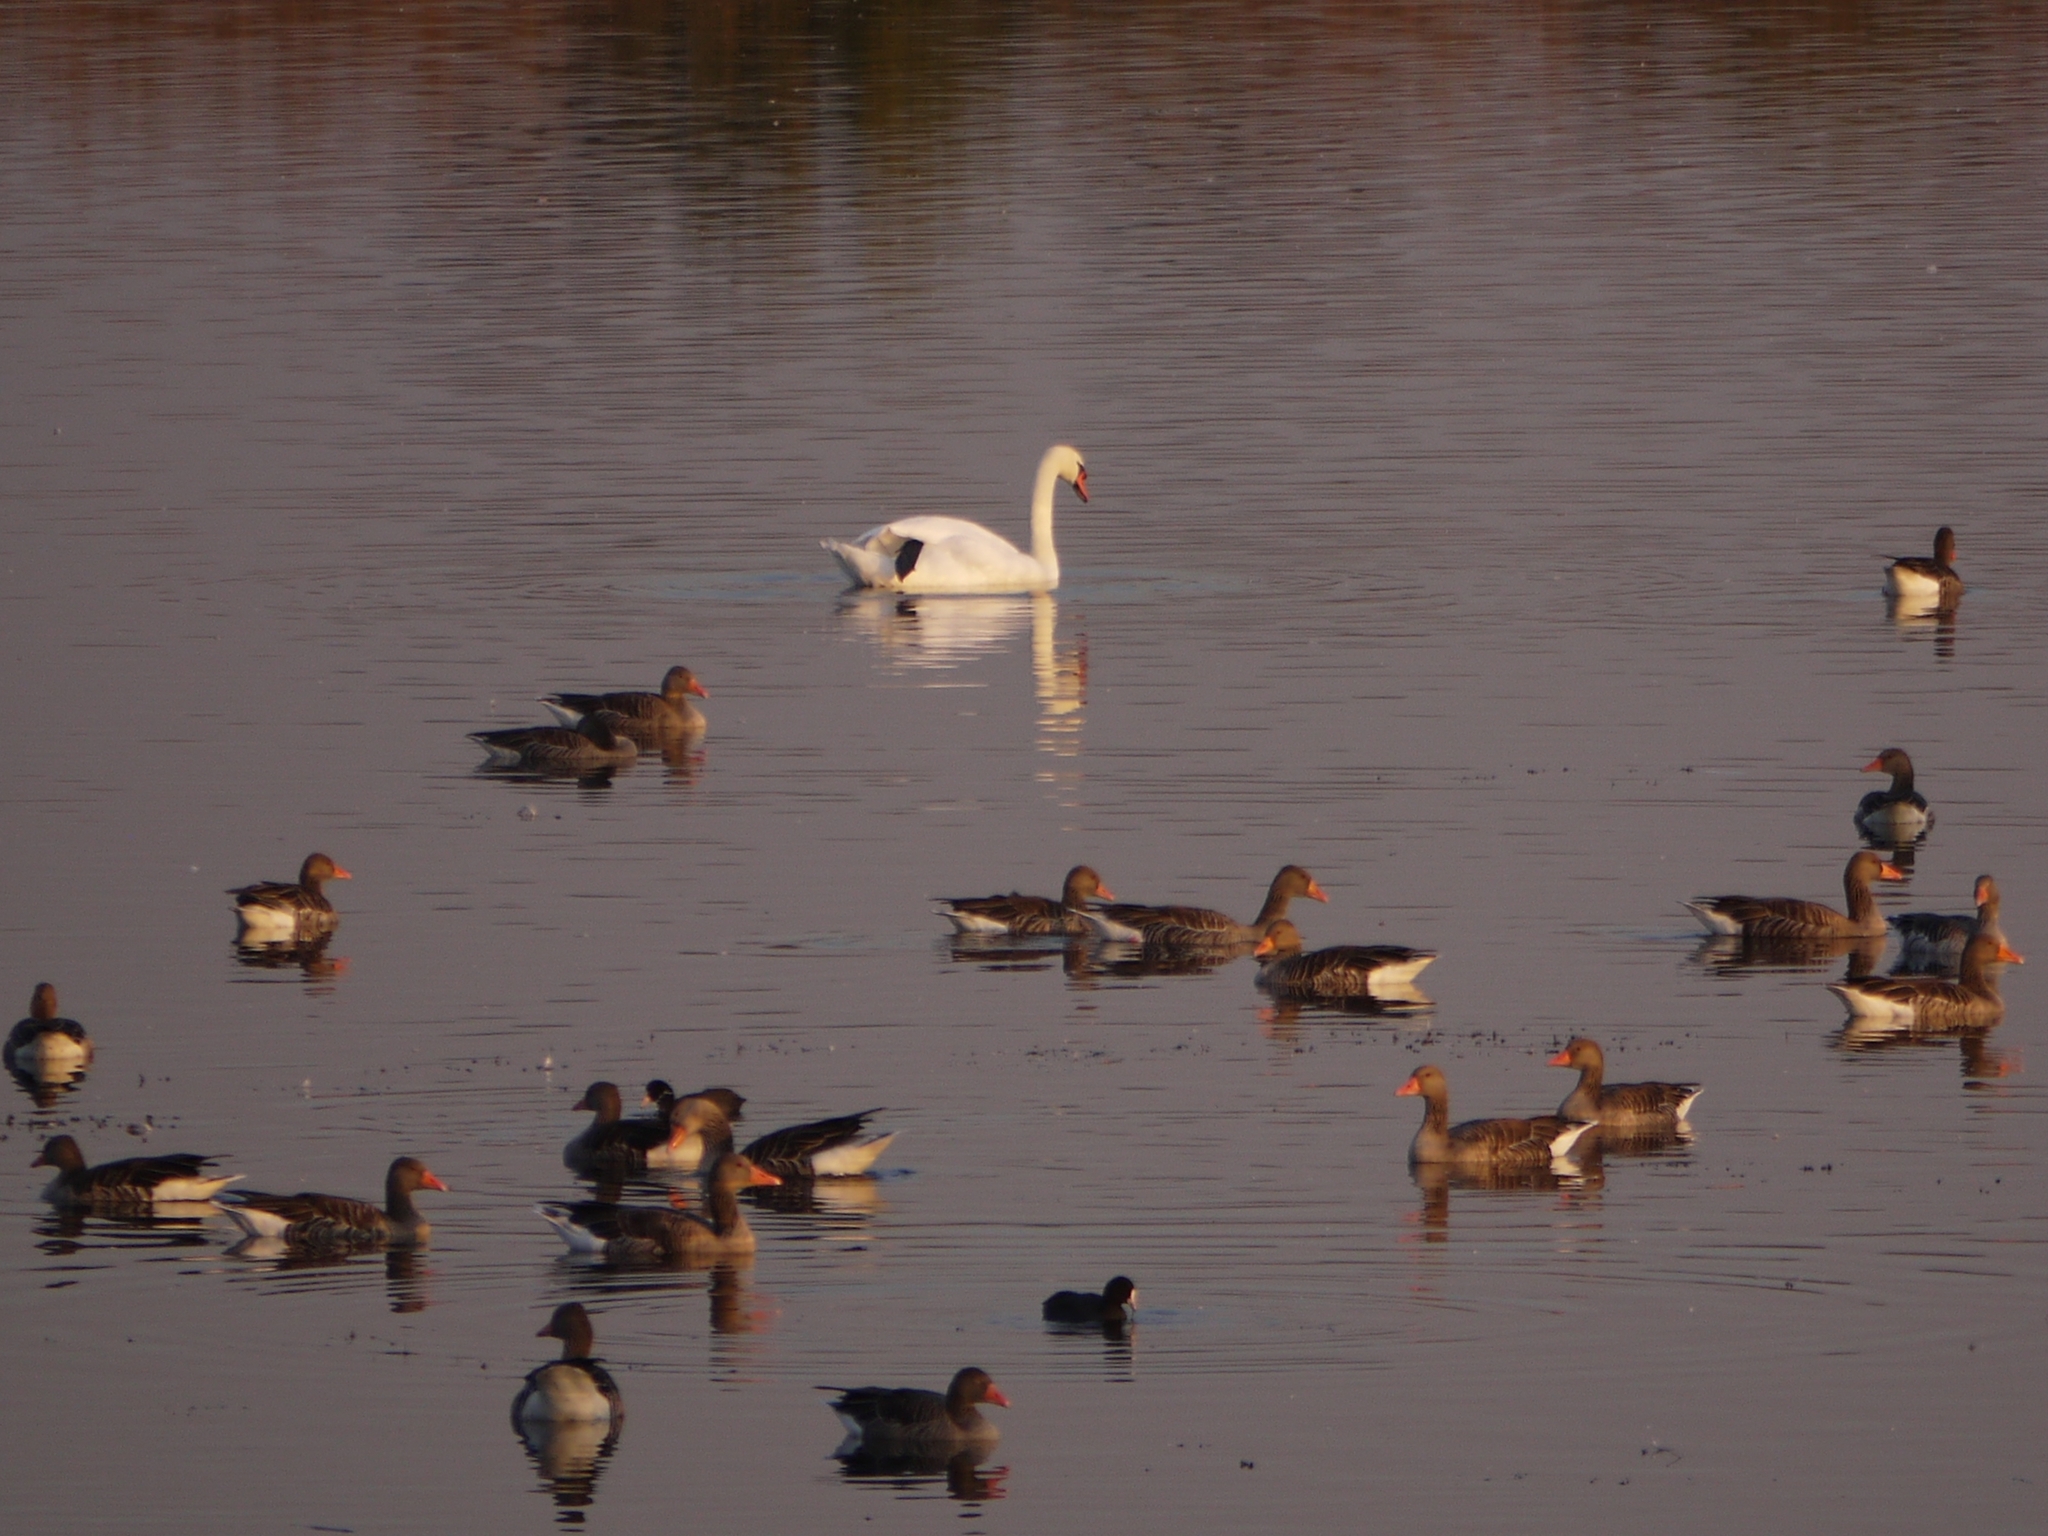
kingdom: Animalia
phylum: Chordata
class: Aves
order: Anseriformes
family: Anatidae
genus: Cygnus
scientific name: Cygnus olor
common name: Mute swan
